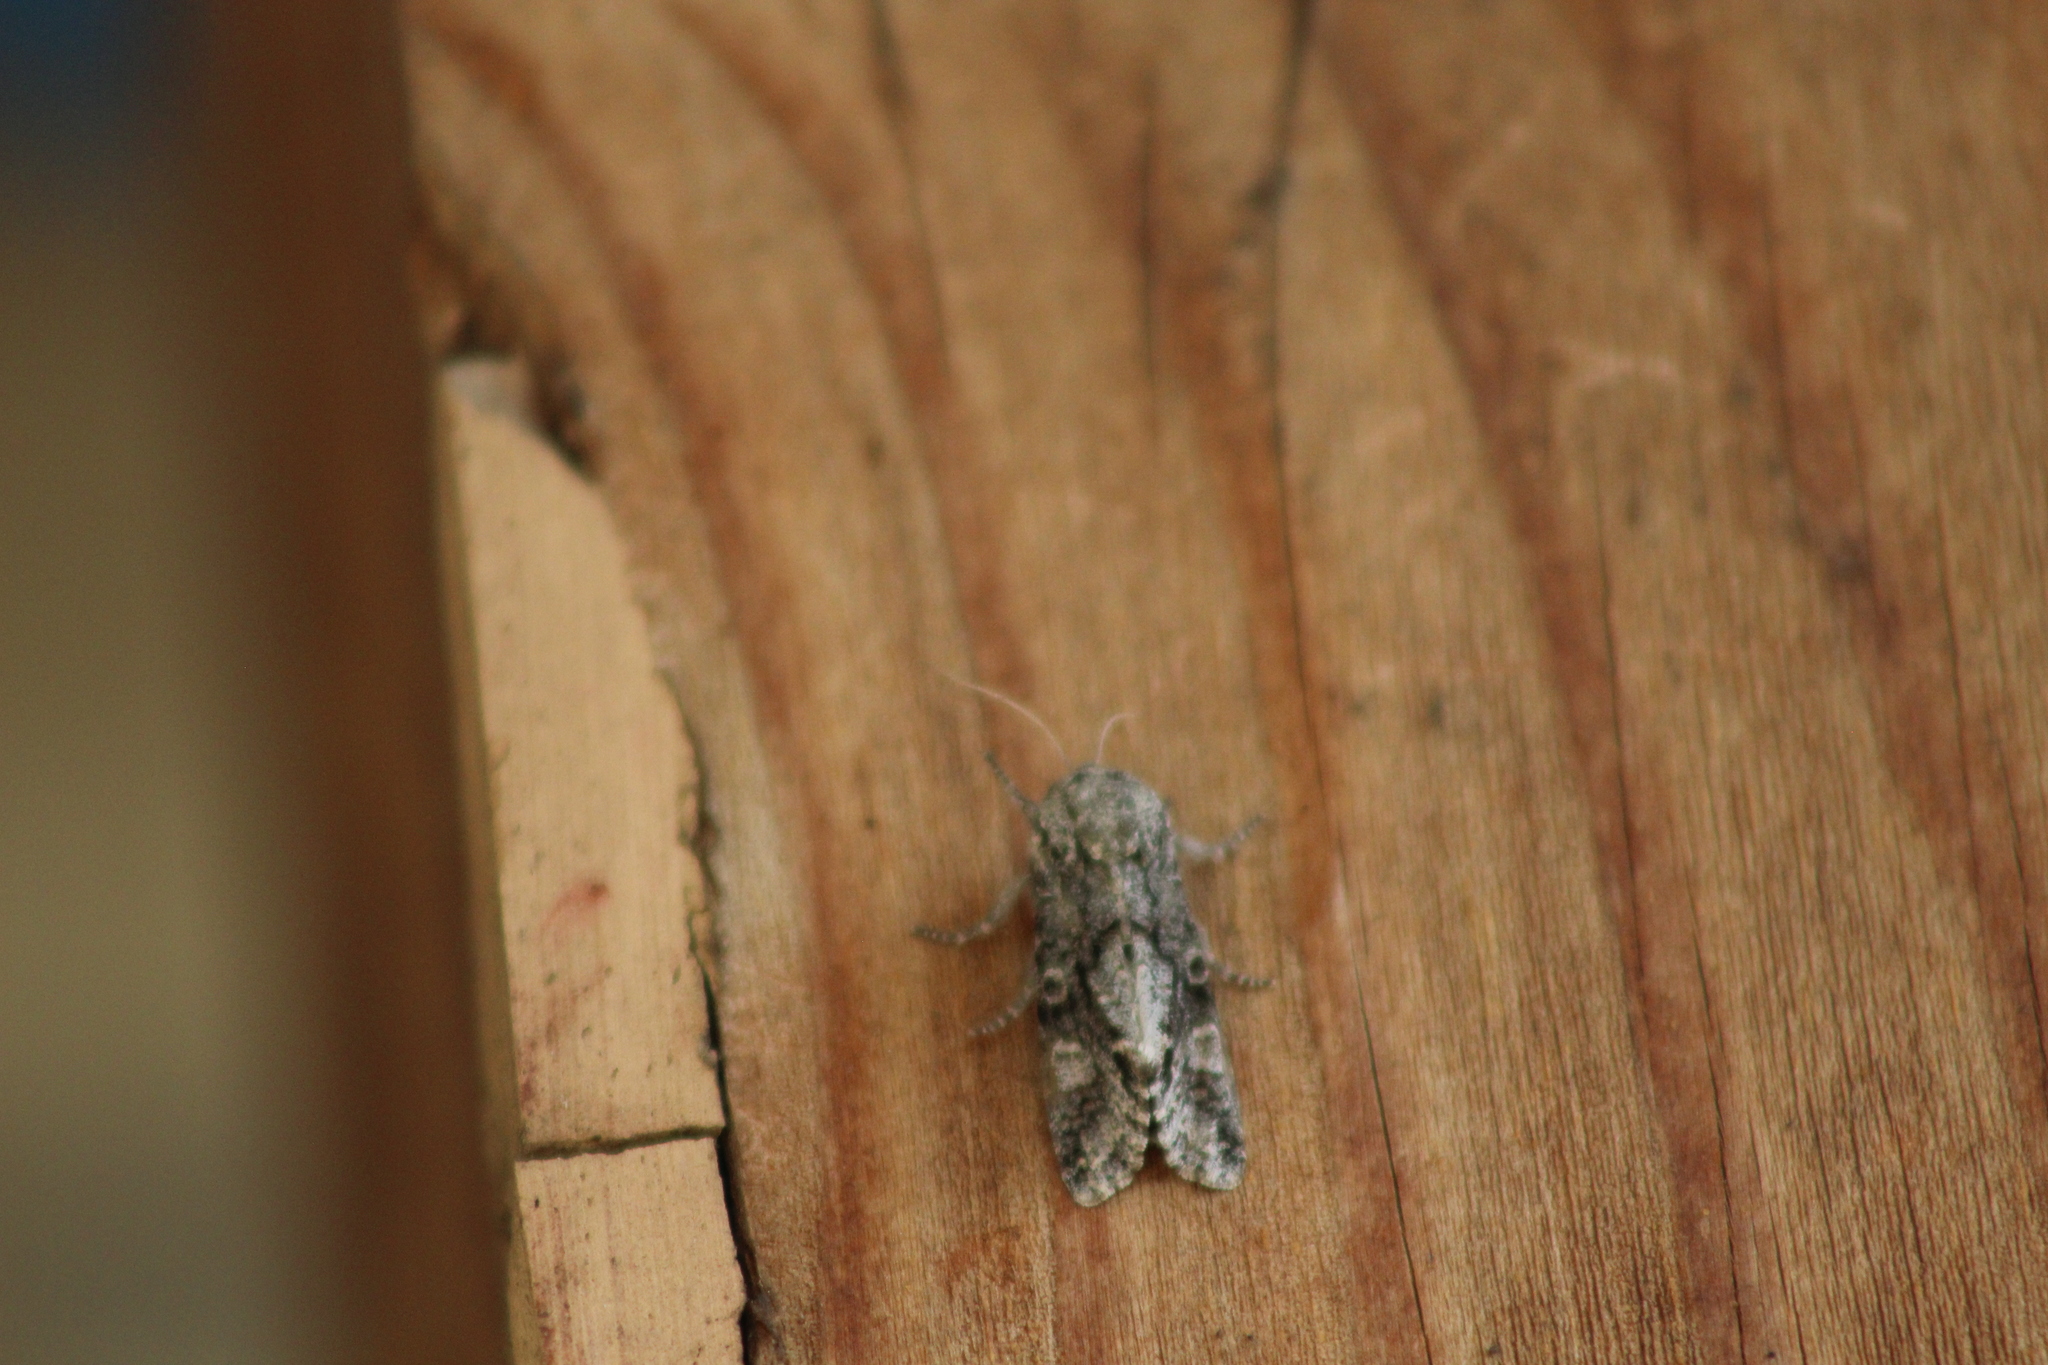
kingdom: Animalia
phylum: Arthropoda
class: Insecta
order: Lepidoptera
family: Noctuidae
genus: Psaphida
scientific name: Psaphida grotei
